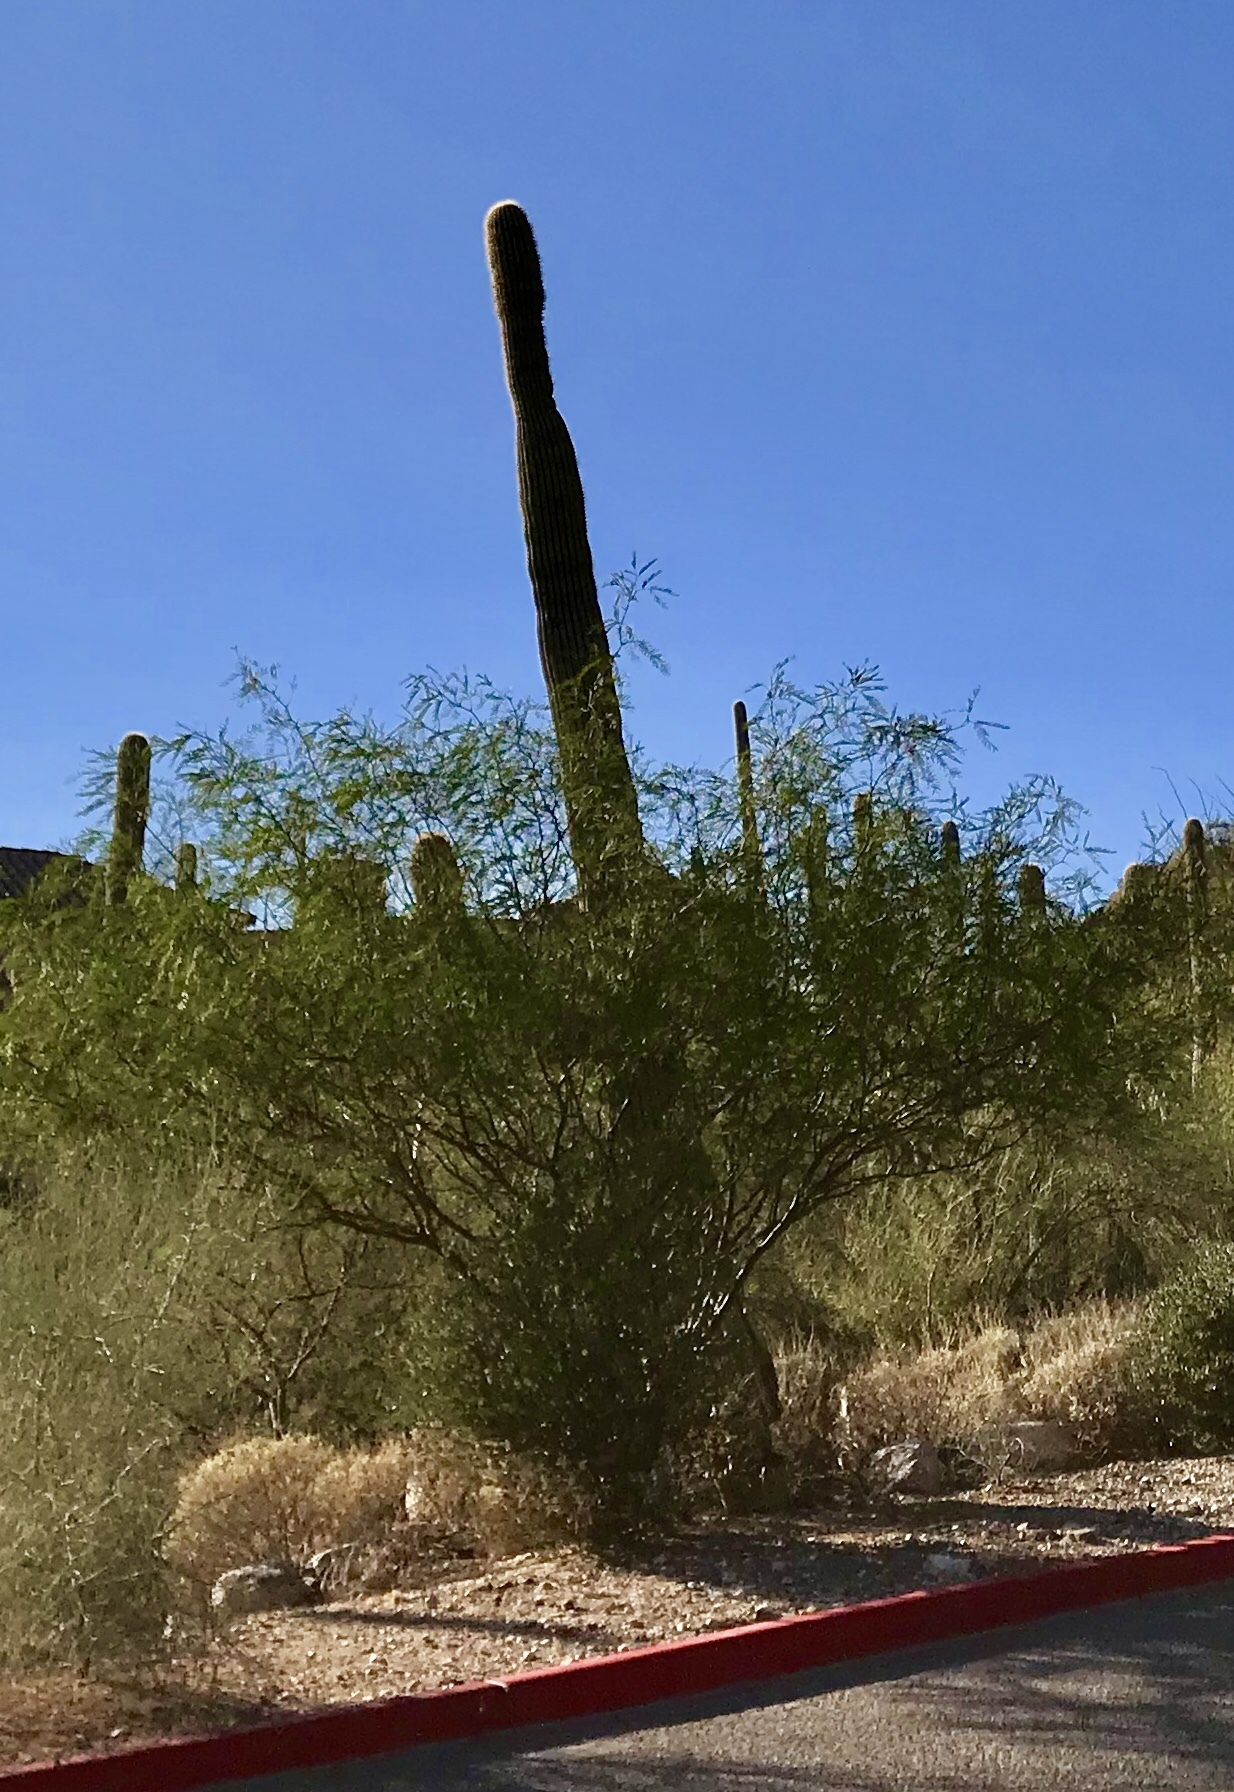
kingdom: Plantae
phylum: Tracheophyta
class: Magnoliopsida
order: Caryophyllales
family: Cactaceae
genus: Carnegiea
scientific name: Carnegiea gigantea
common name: Saguaro
